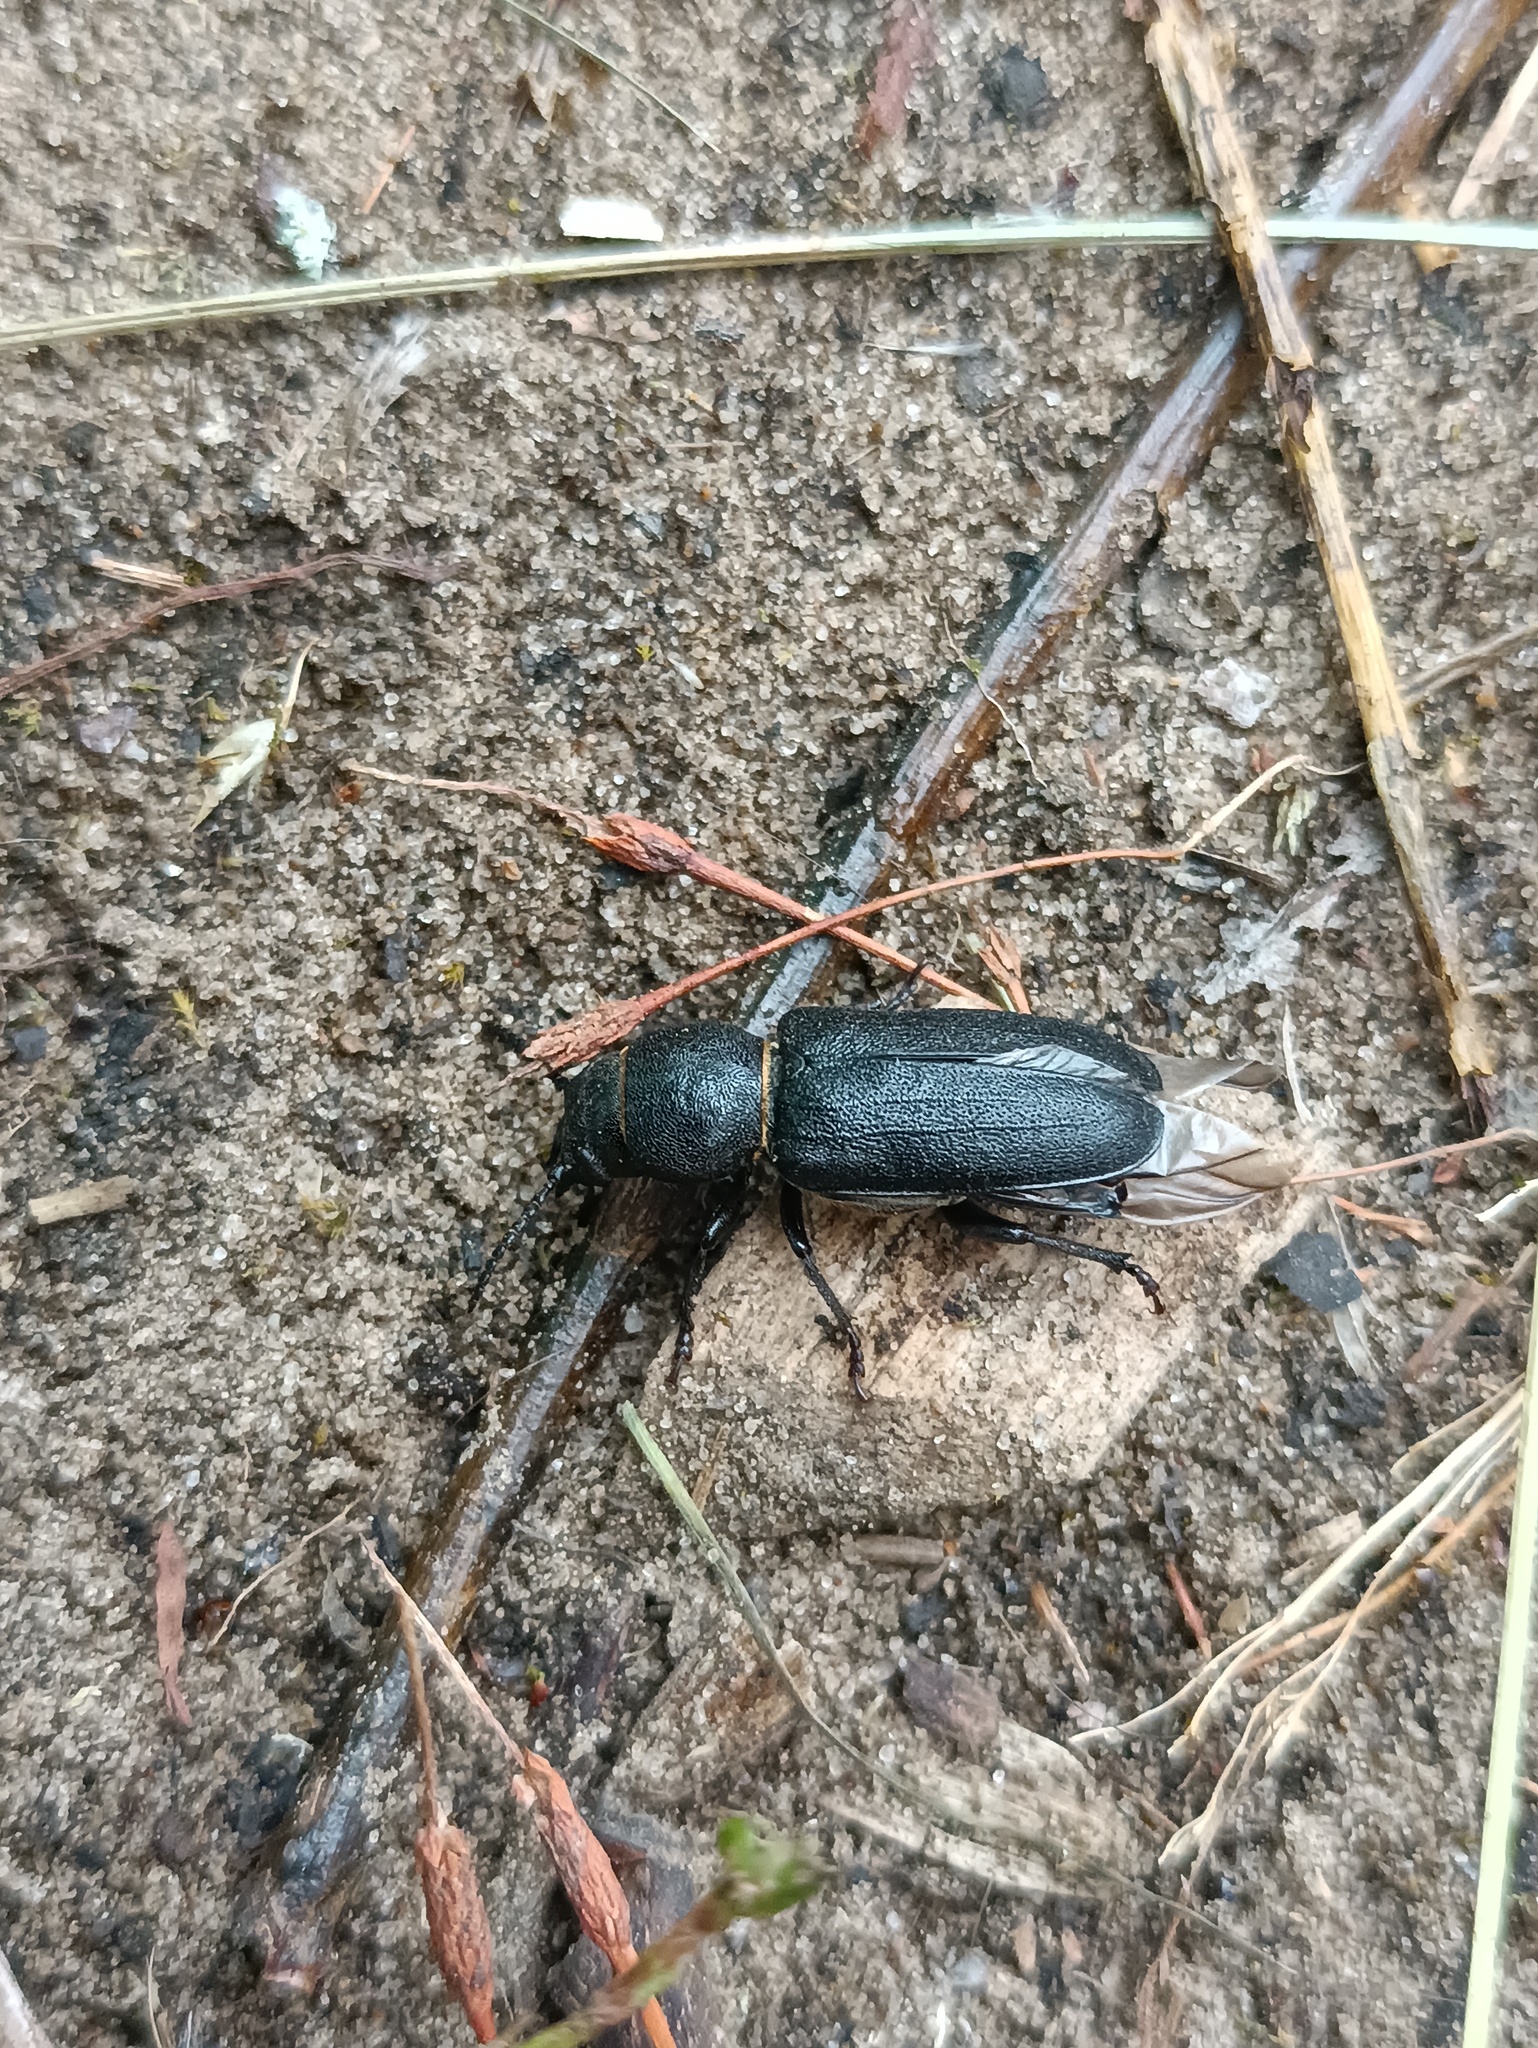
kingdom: Animalia
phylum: Arthropoda
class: Insecta
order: Coleoptera
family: Cerambycidae
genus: Spondylis
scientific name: Spondylis buprestoides
